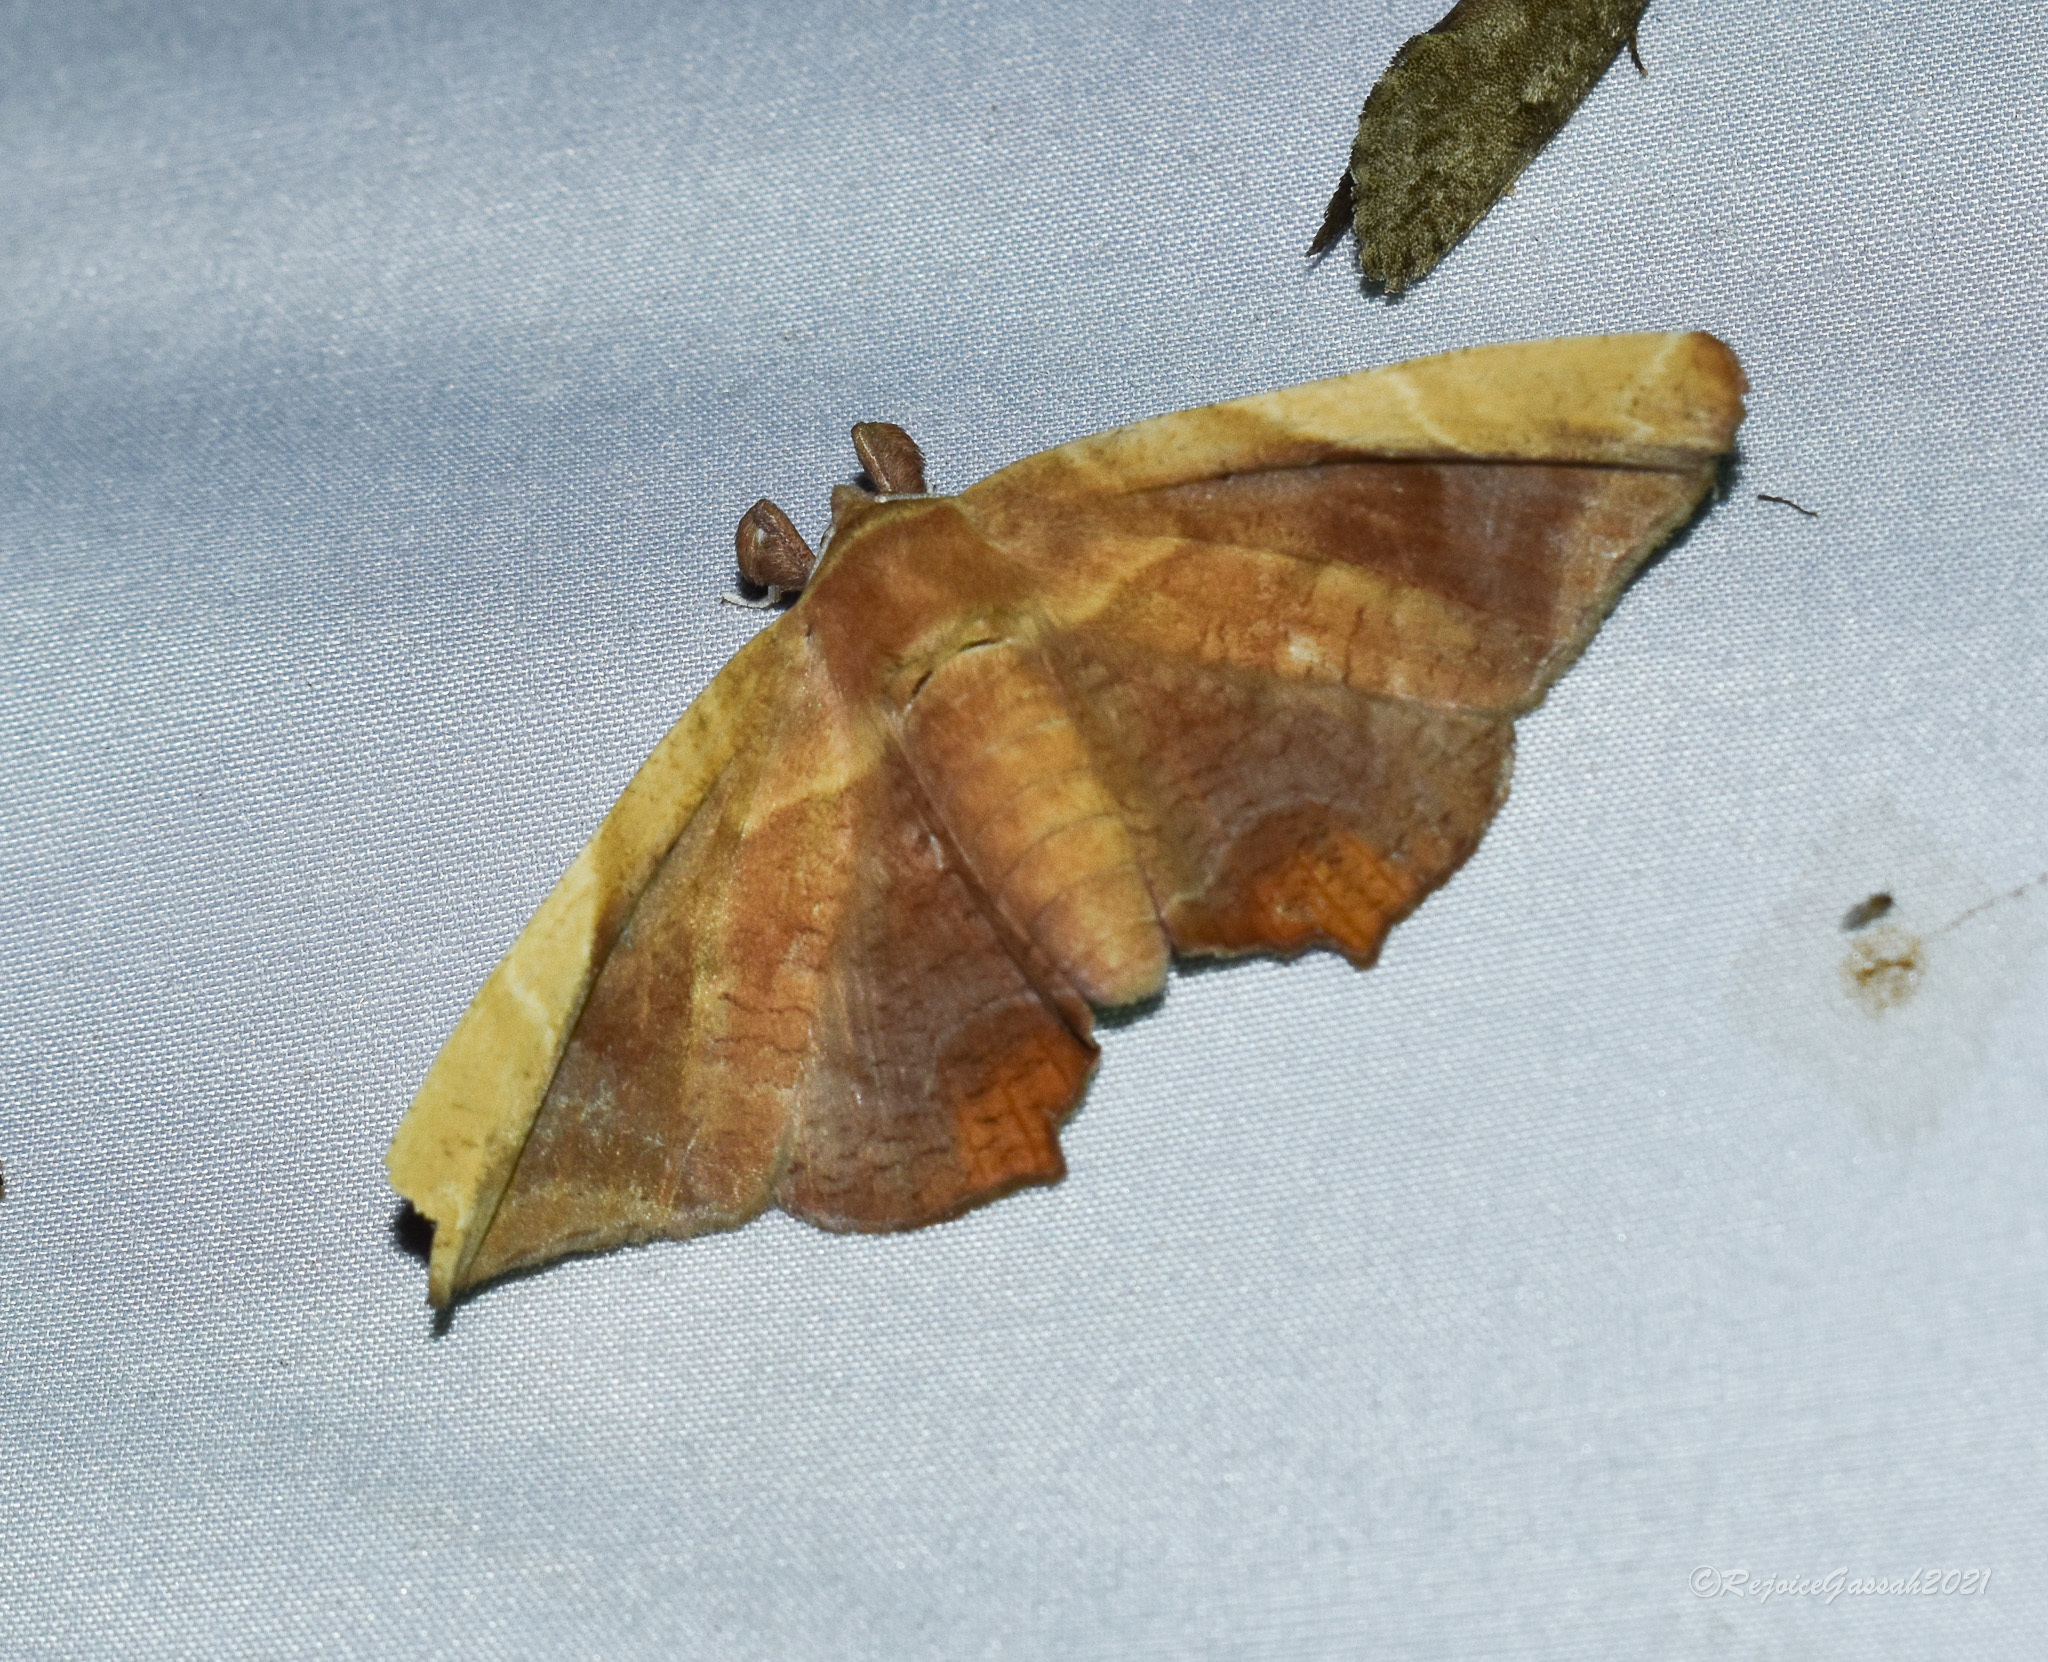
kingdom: Animalia
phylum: Arthropoda
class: Insecta
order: Lepidoptera
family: Erebidae
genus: Episparis
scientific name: Episparis tortuosalis
